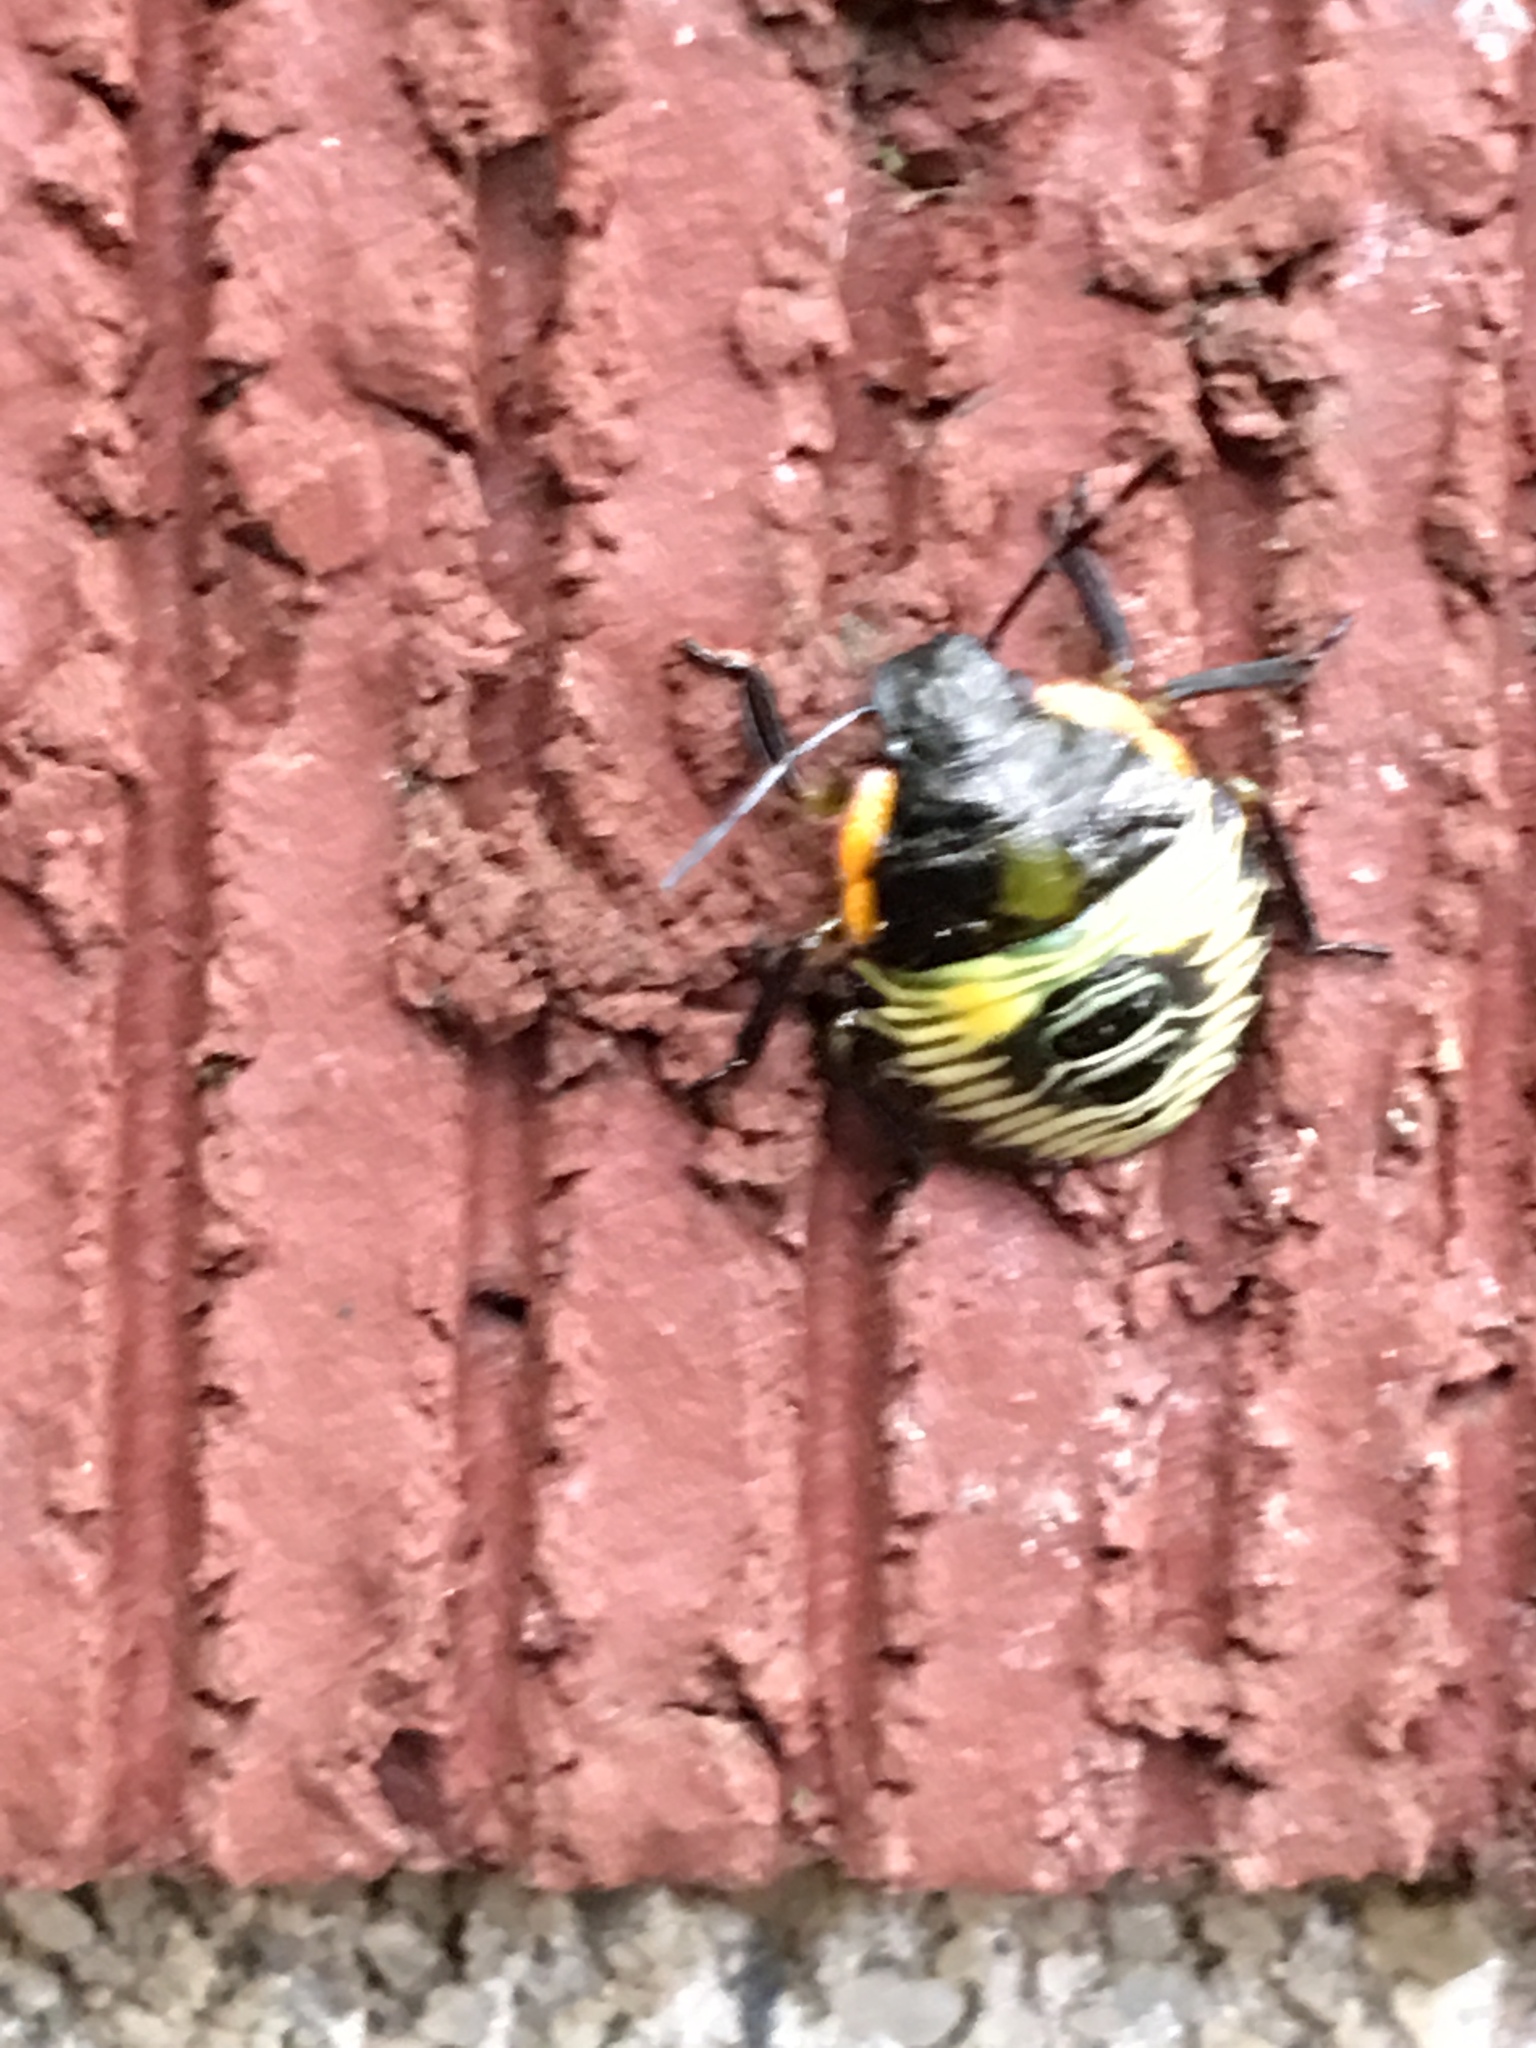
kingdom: Animalia
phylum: Arthropoda
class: Insecta
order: Hemiptera
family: Pentatomidae
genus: Chinavia
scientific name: Chinavia hilaris
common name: Green stink bug
